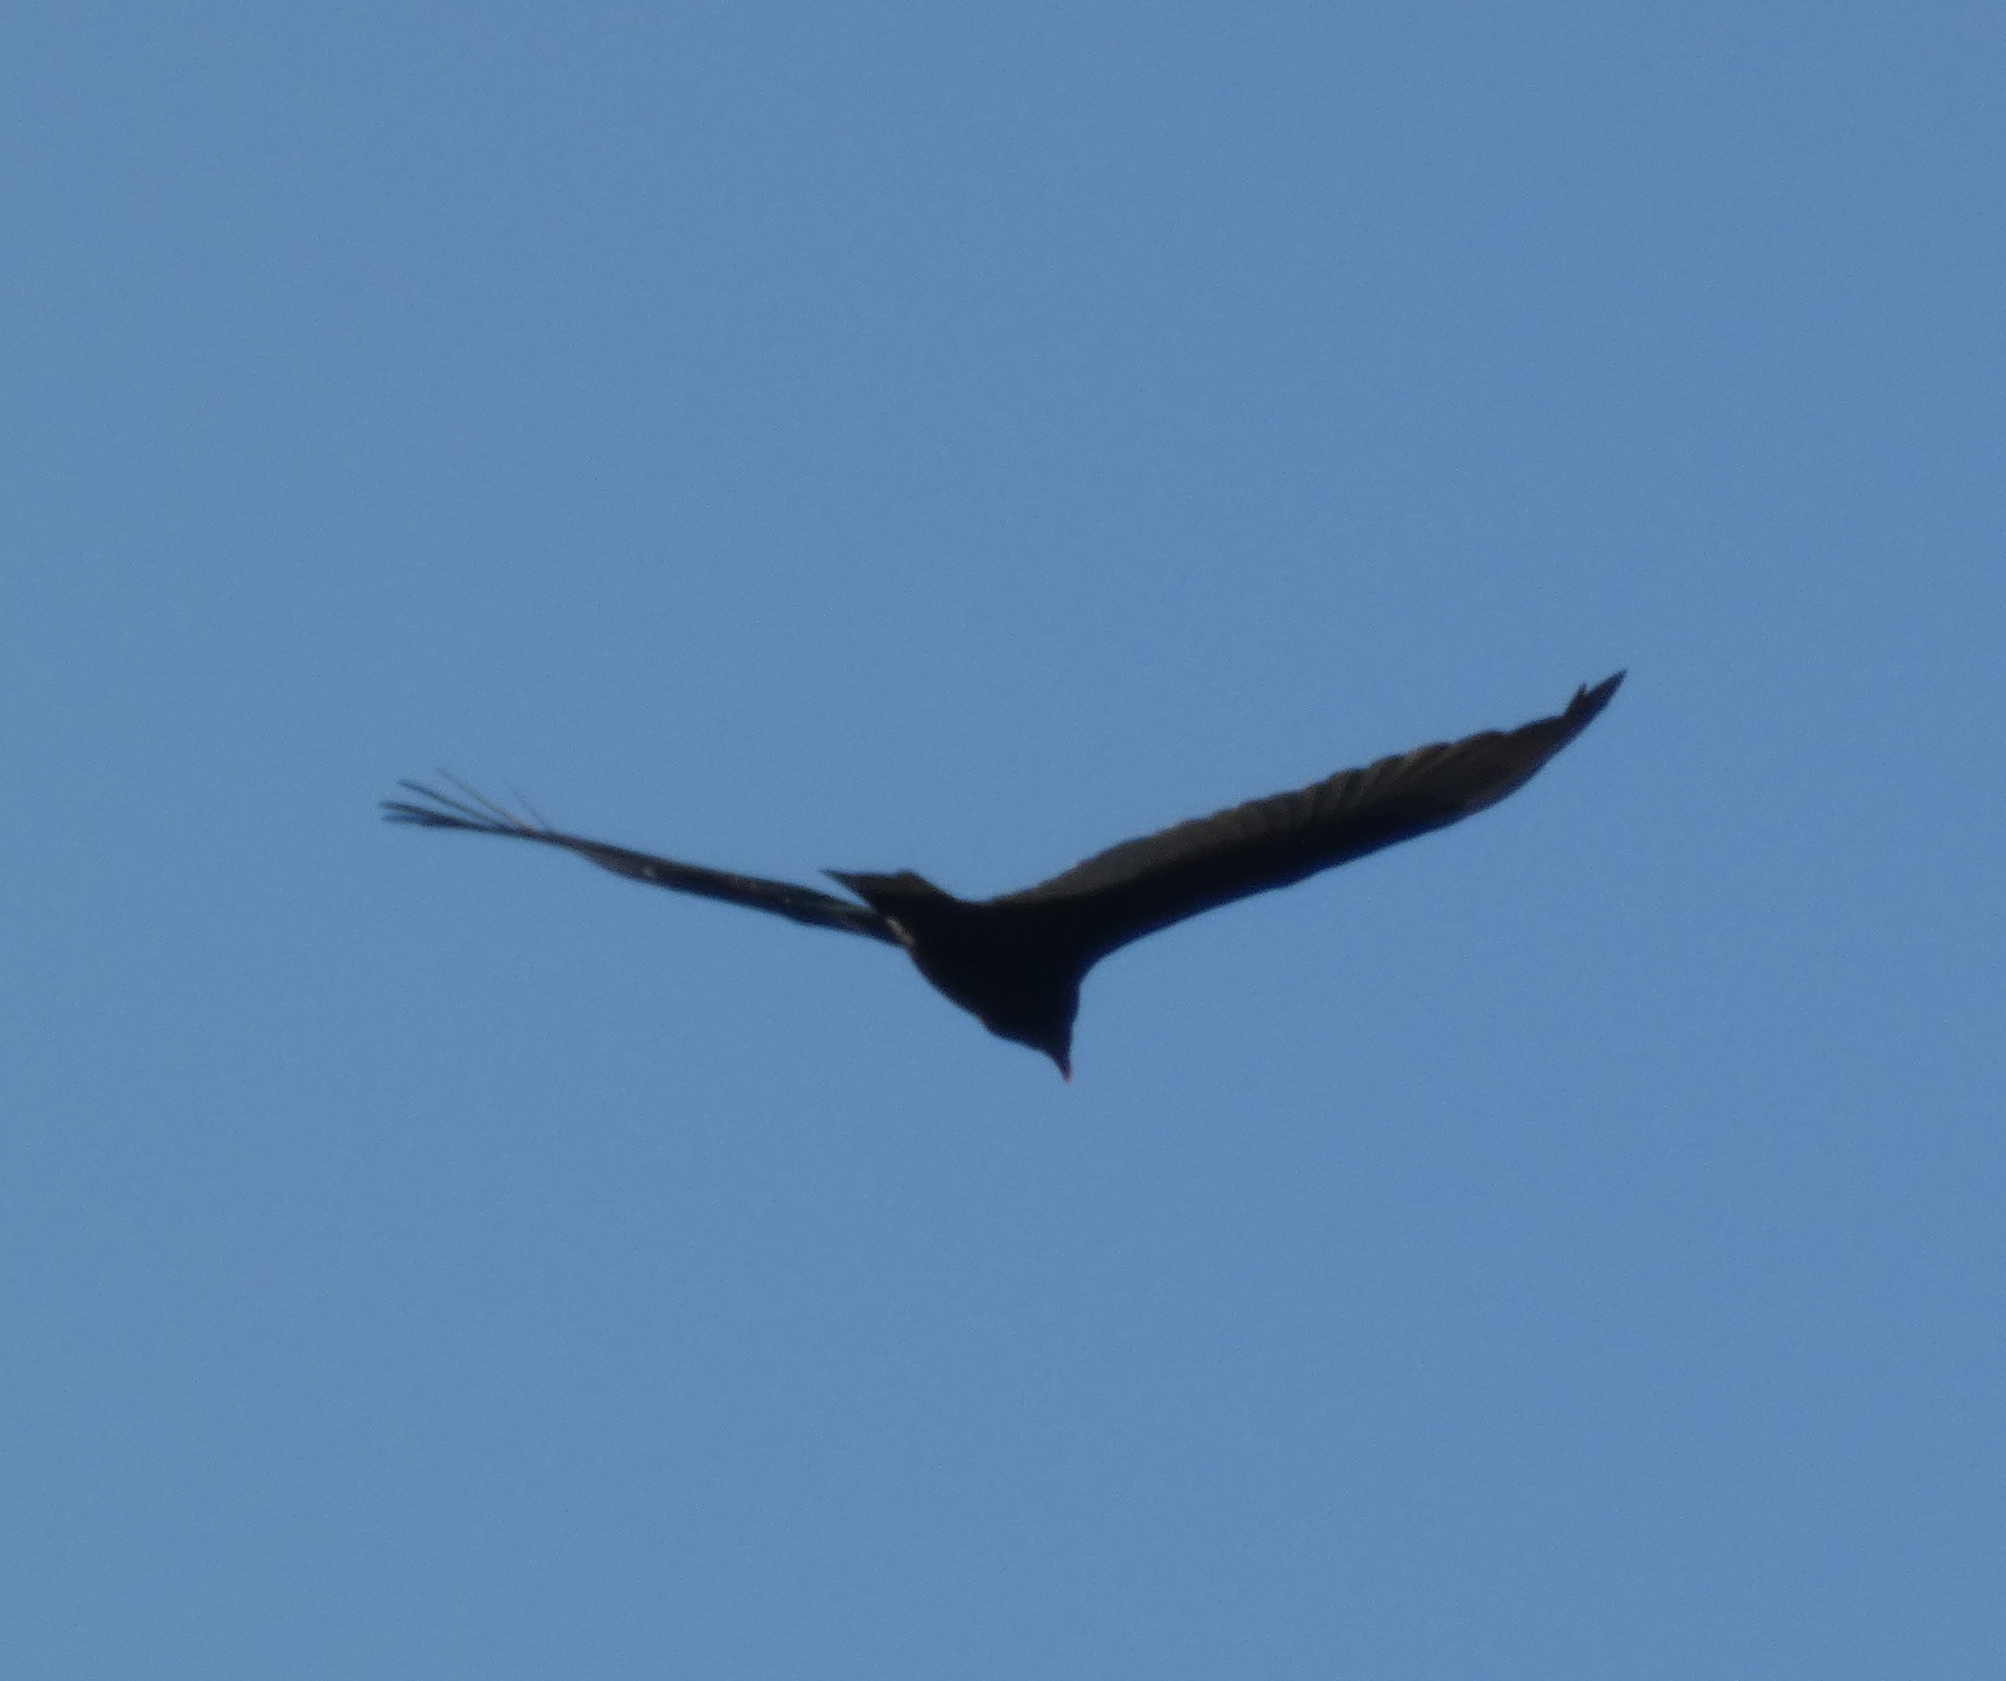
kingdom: Animalia
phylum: Chordata
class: Aves
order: Accipitriformes
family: Cathartidae
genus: Cathartes
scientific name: Cathartes aura
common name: Turkey vulture
